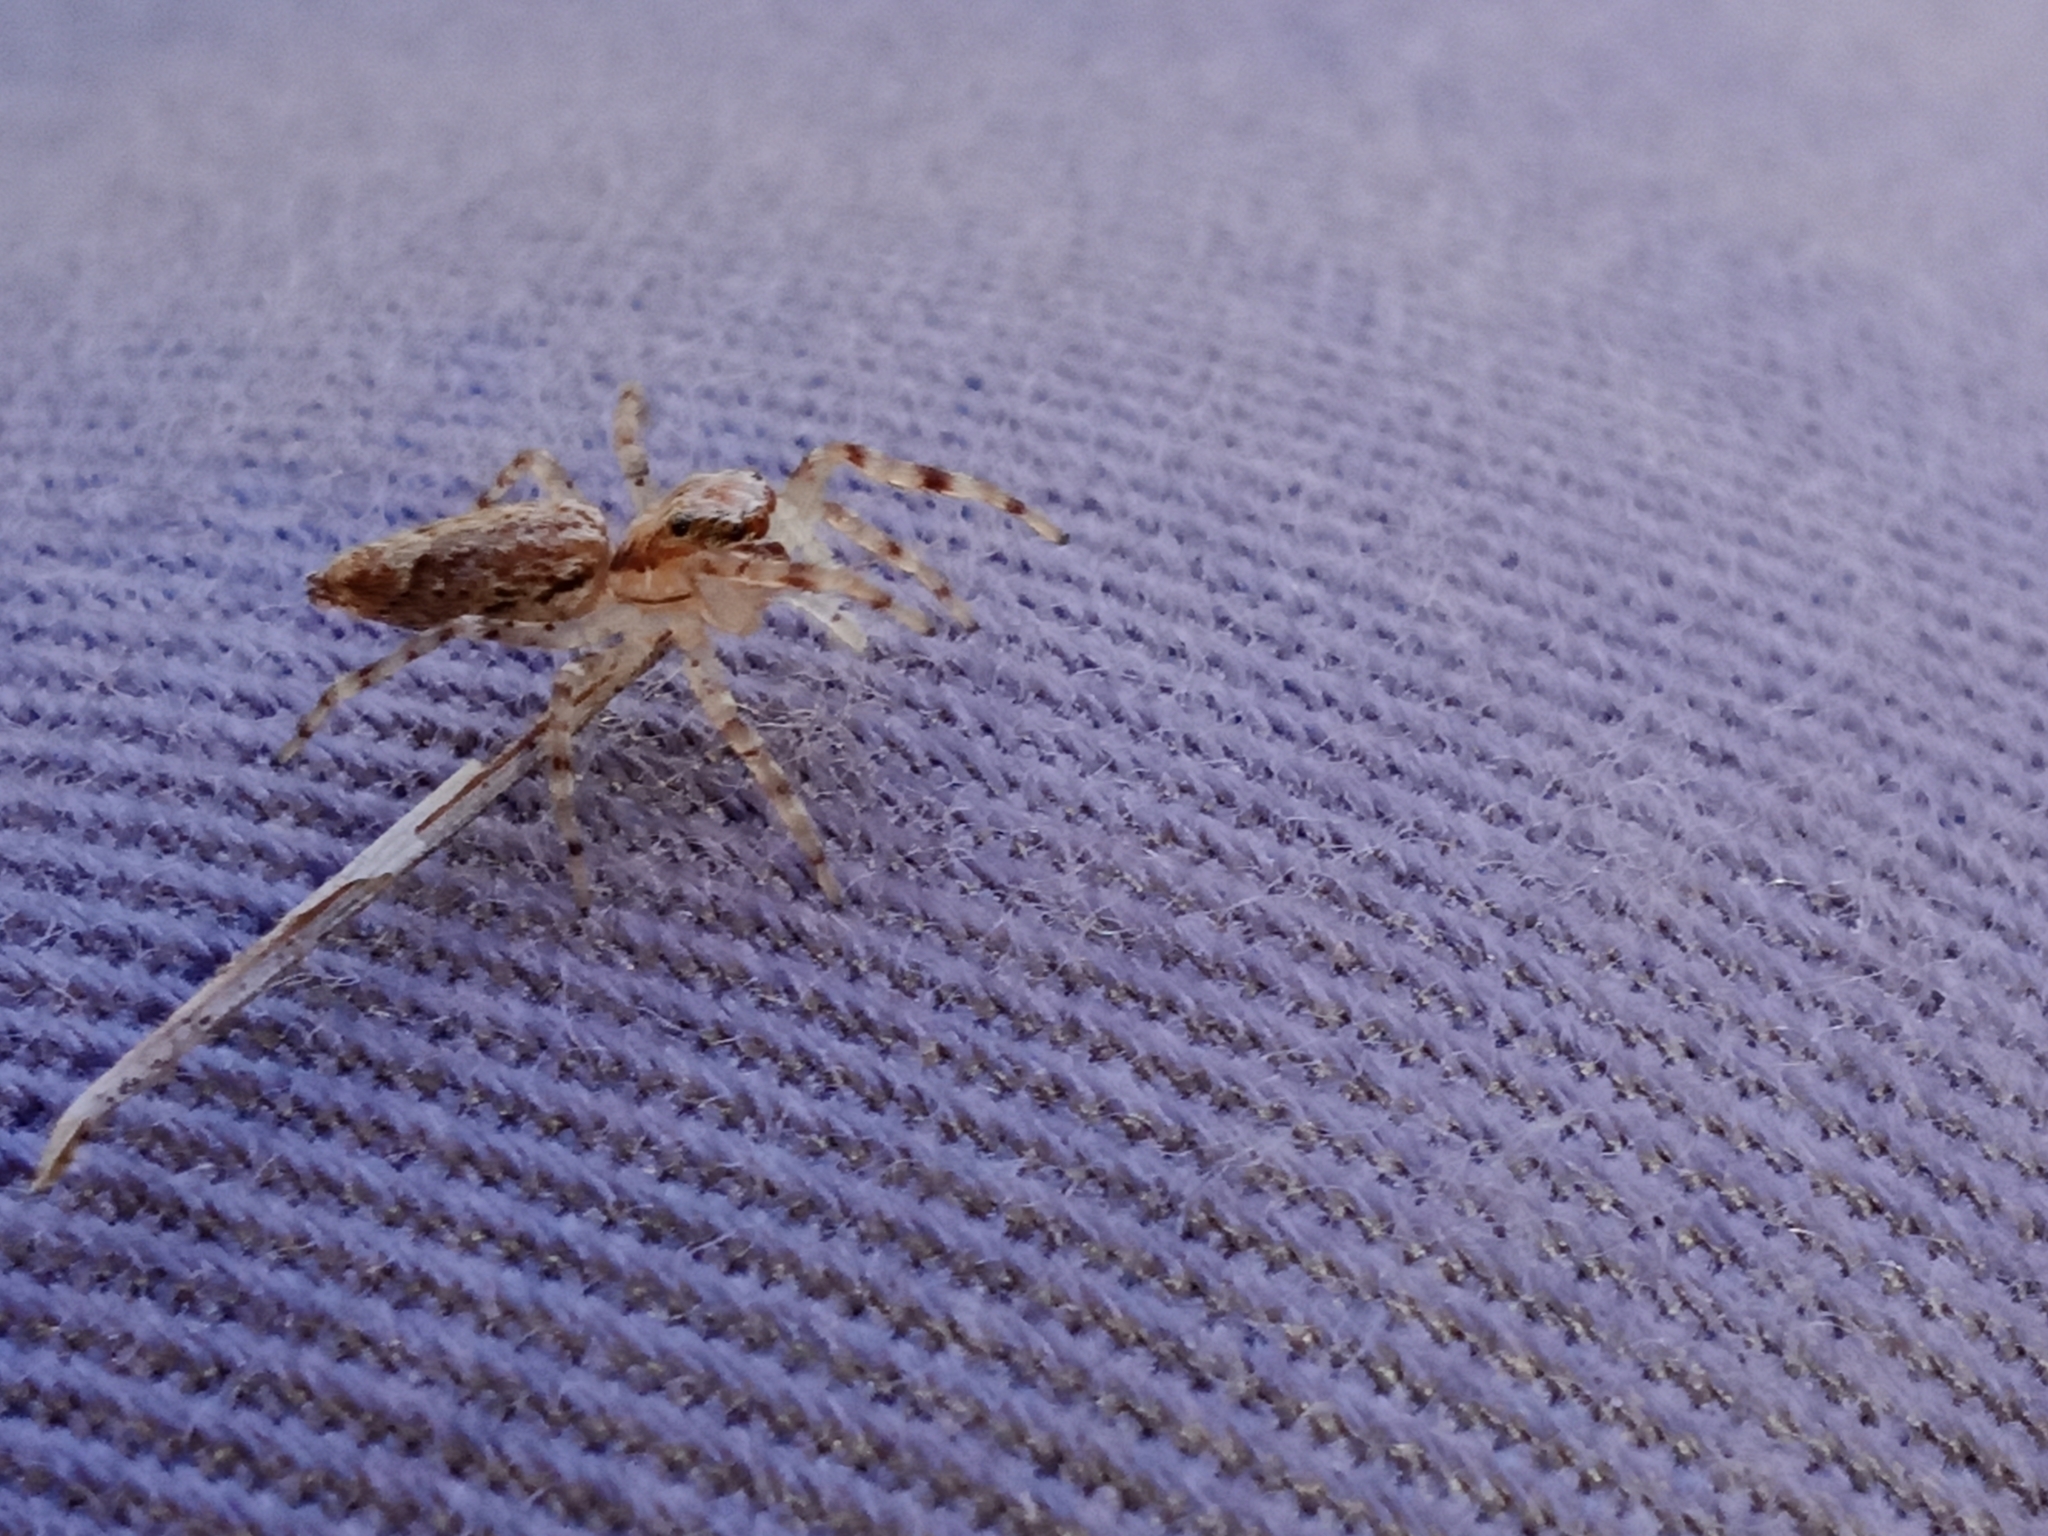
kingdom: Animalia
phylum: Arthropoda
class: Arachnida
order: Araneae
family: Salticidae
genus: Helpis
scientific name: Helpis minitabunda
